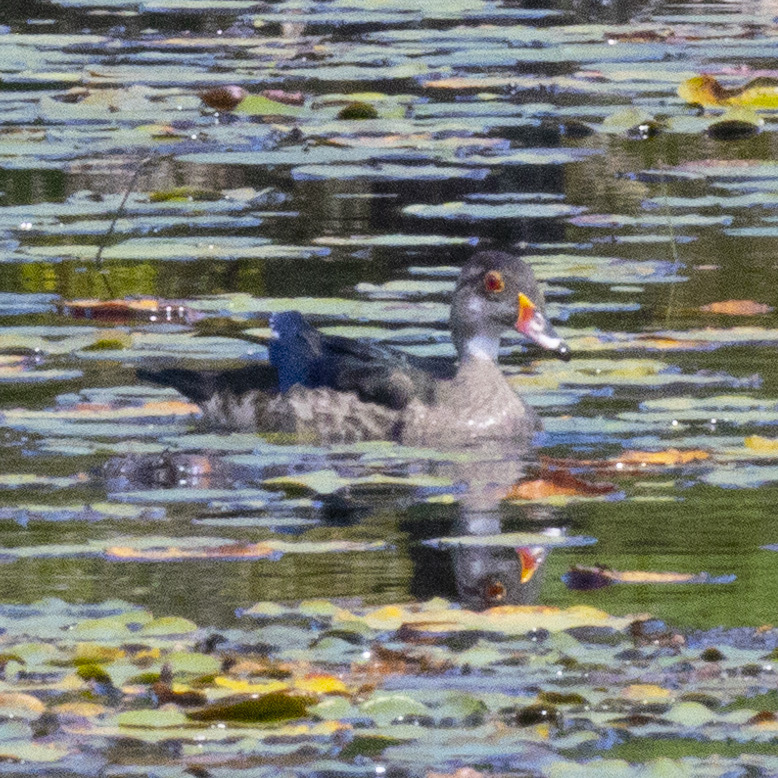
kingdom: Animalia
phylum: Chordata
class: Aves
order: Anseriformes
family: Anatidae
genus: Aix
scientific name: Aix sponsa
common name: Wood duck
